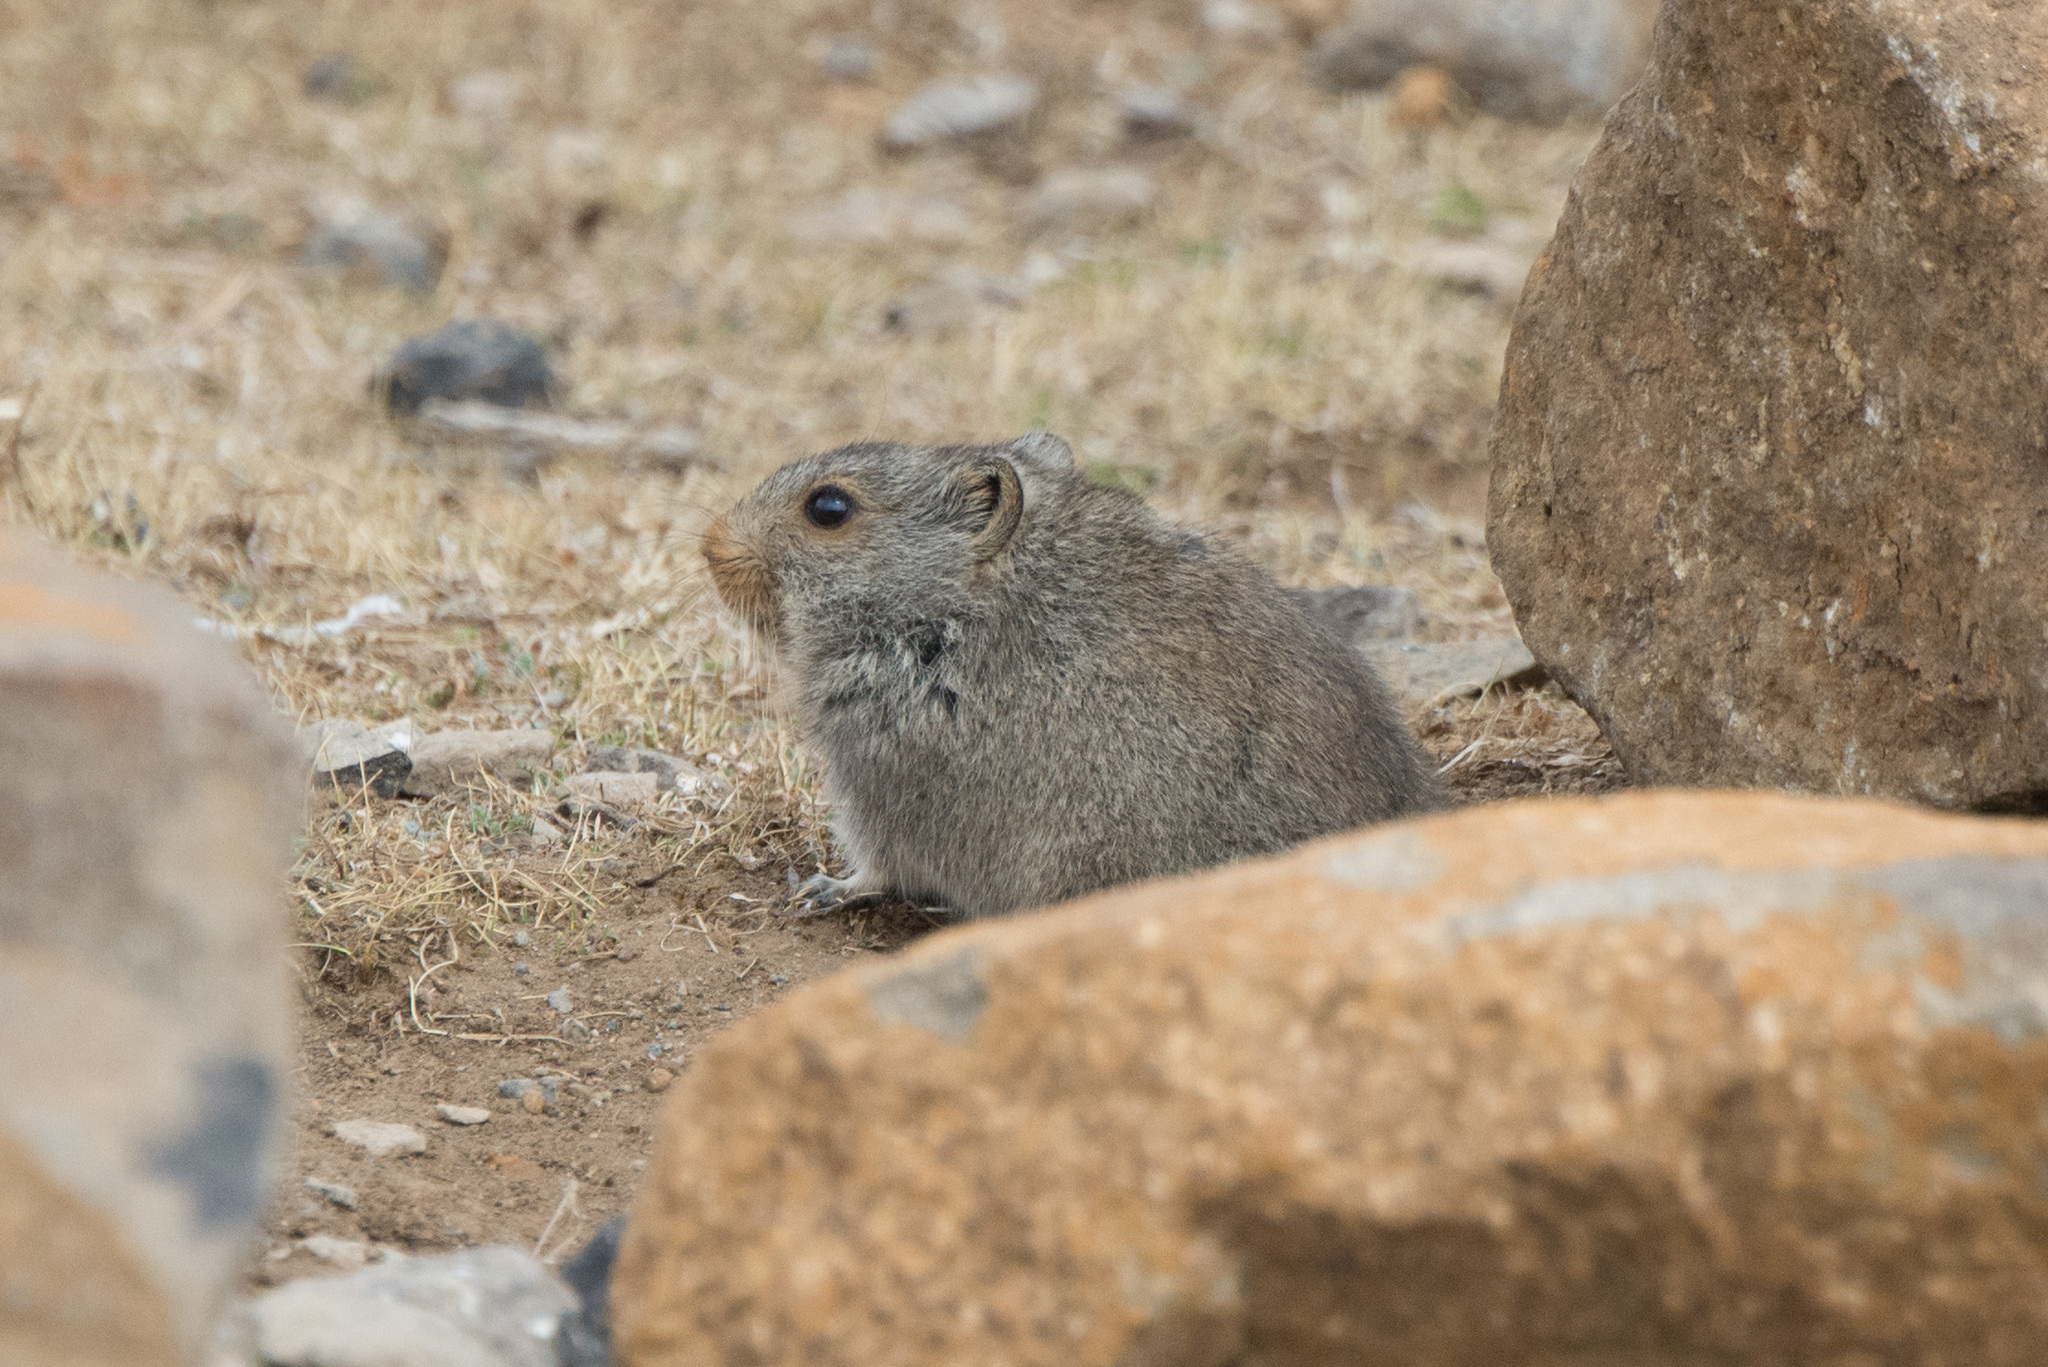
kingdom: Animalia
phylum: Chordata
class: Mammalia
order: Rodentia
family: Muridae
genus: Myotomys
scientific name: Myotomys sloggetti
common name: Rock karroo rat
